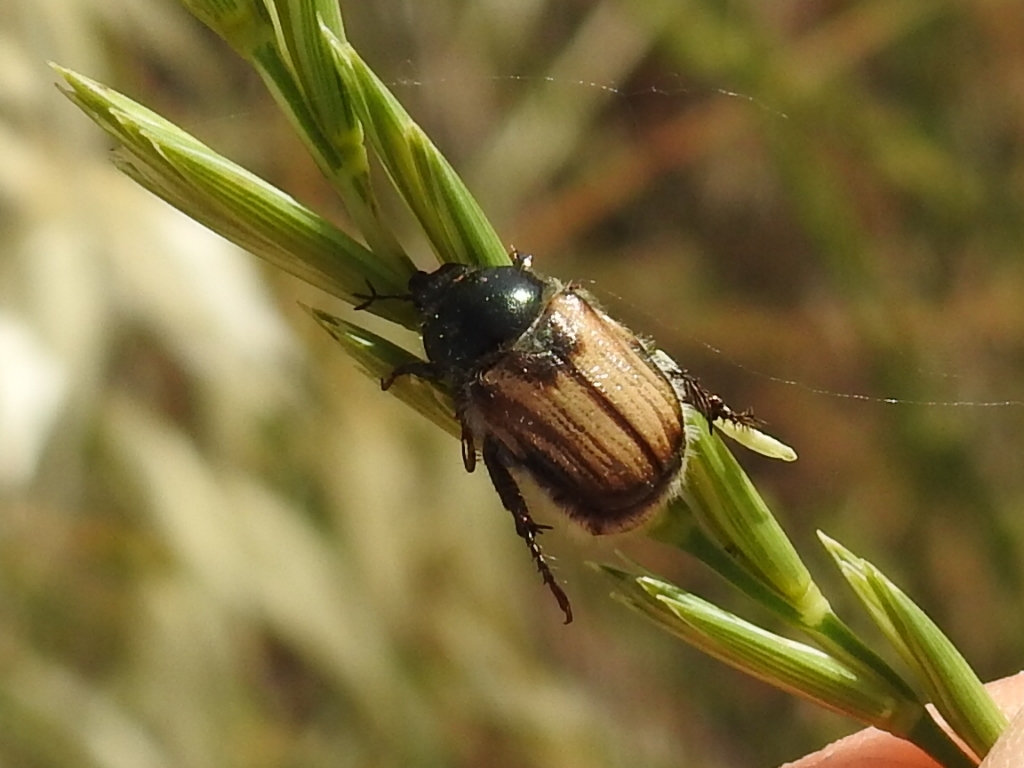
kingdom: Animalia
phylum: Arthropoda
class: Insecta
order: Coleoptera
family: Scarabaeidae
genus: Anisoplia
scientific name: Anisoplia tempestiva
